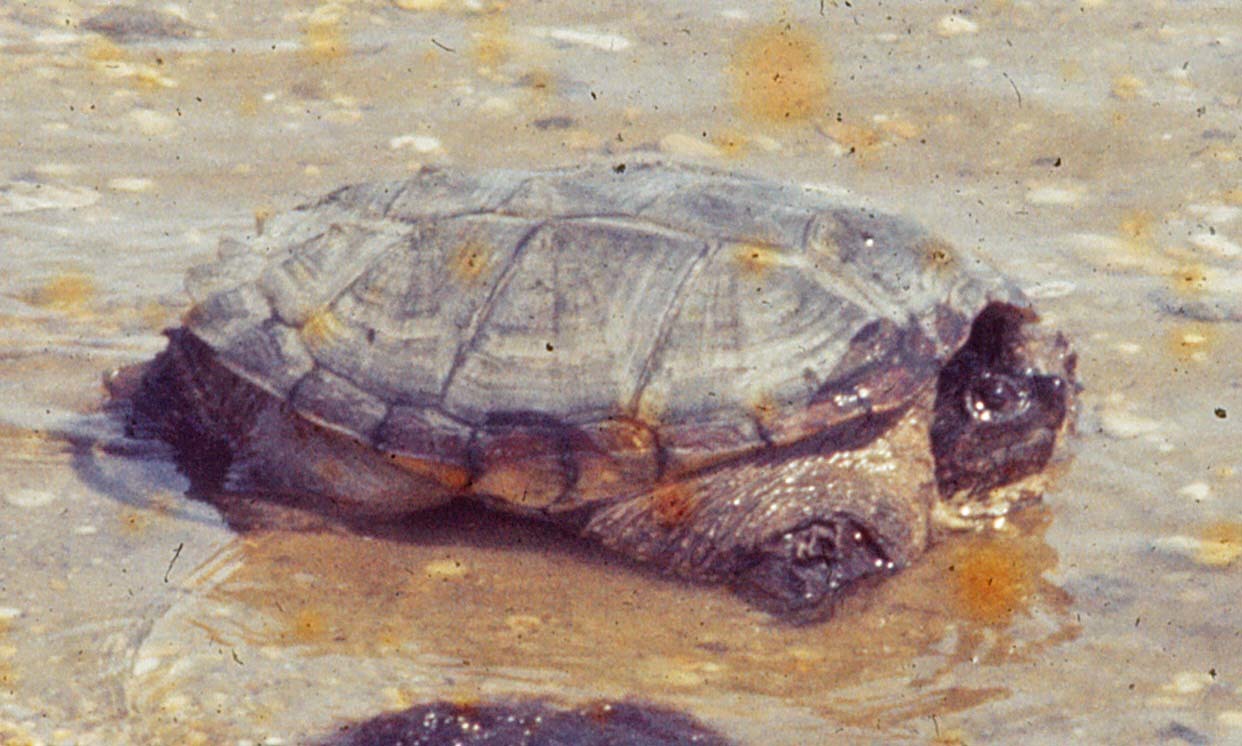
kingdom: Animalia
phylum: Chordata
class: Testudines
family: Chelydridae
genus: Chelydra
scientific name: Chelydra serpentina
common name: Common snapping turtle
